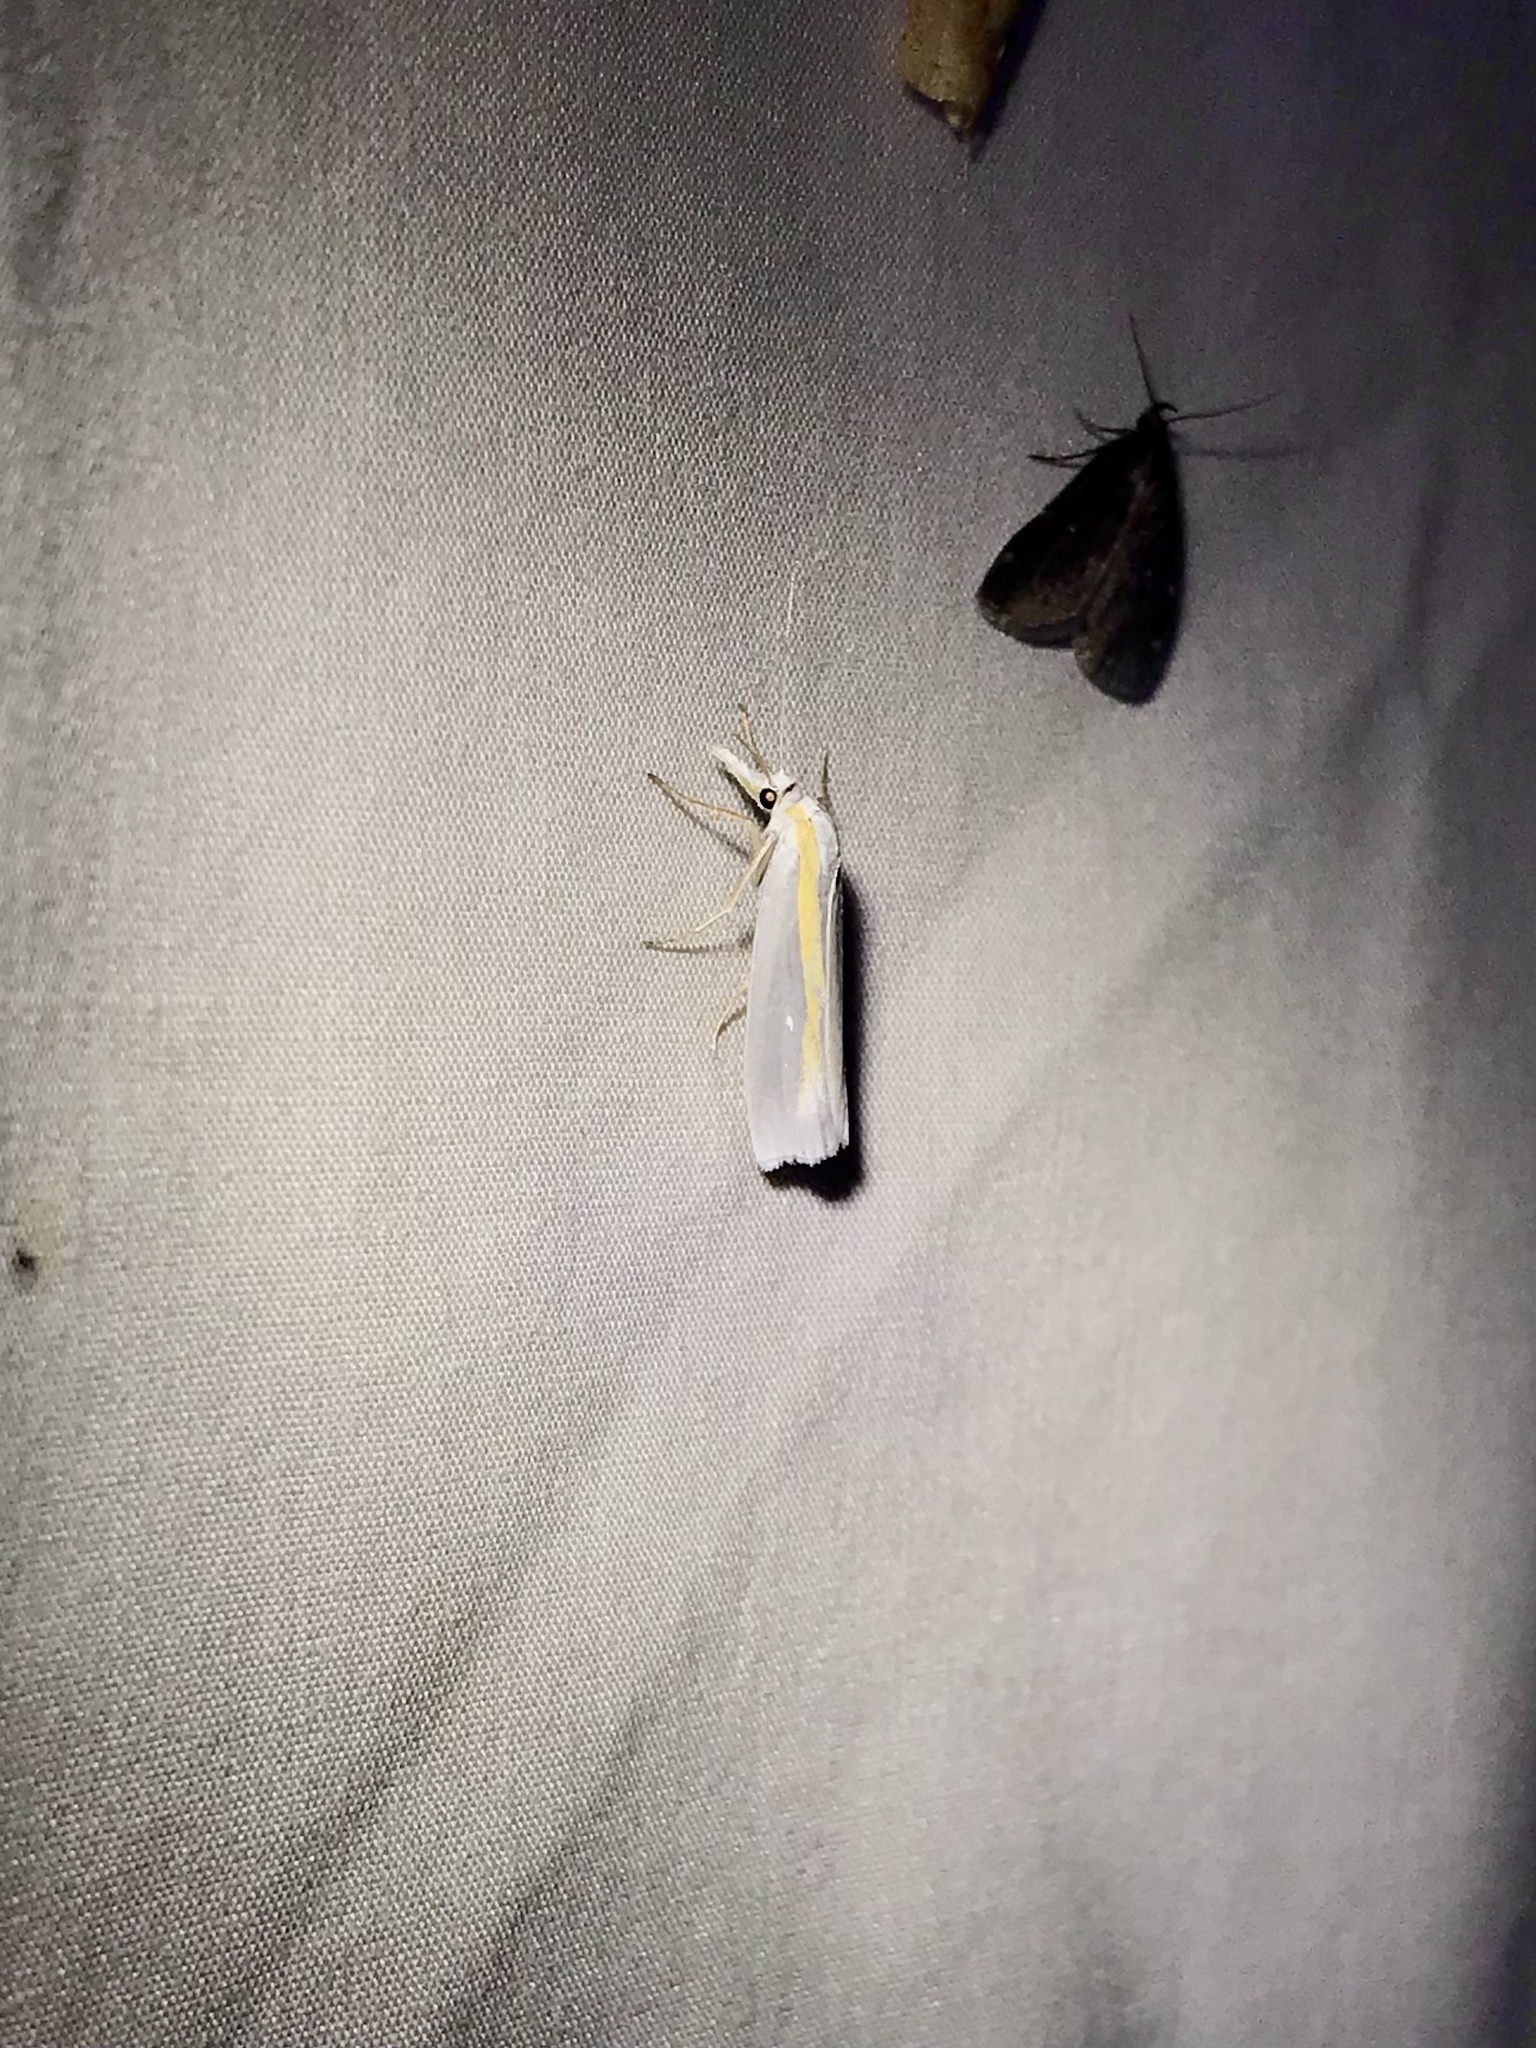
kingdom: Animalia
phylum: Arthropoda
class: Insecta
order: Lepidoptera
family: Crambidae
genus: Crambus
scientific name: Crambus girardellus
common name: Girard's grass-veneer
